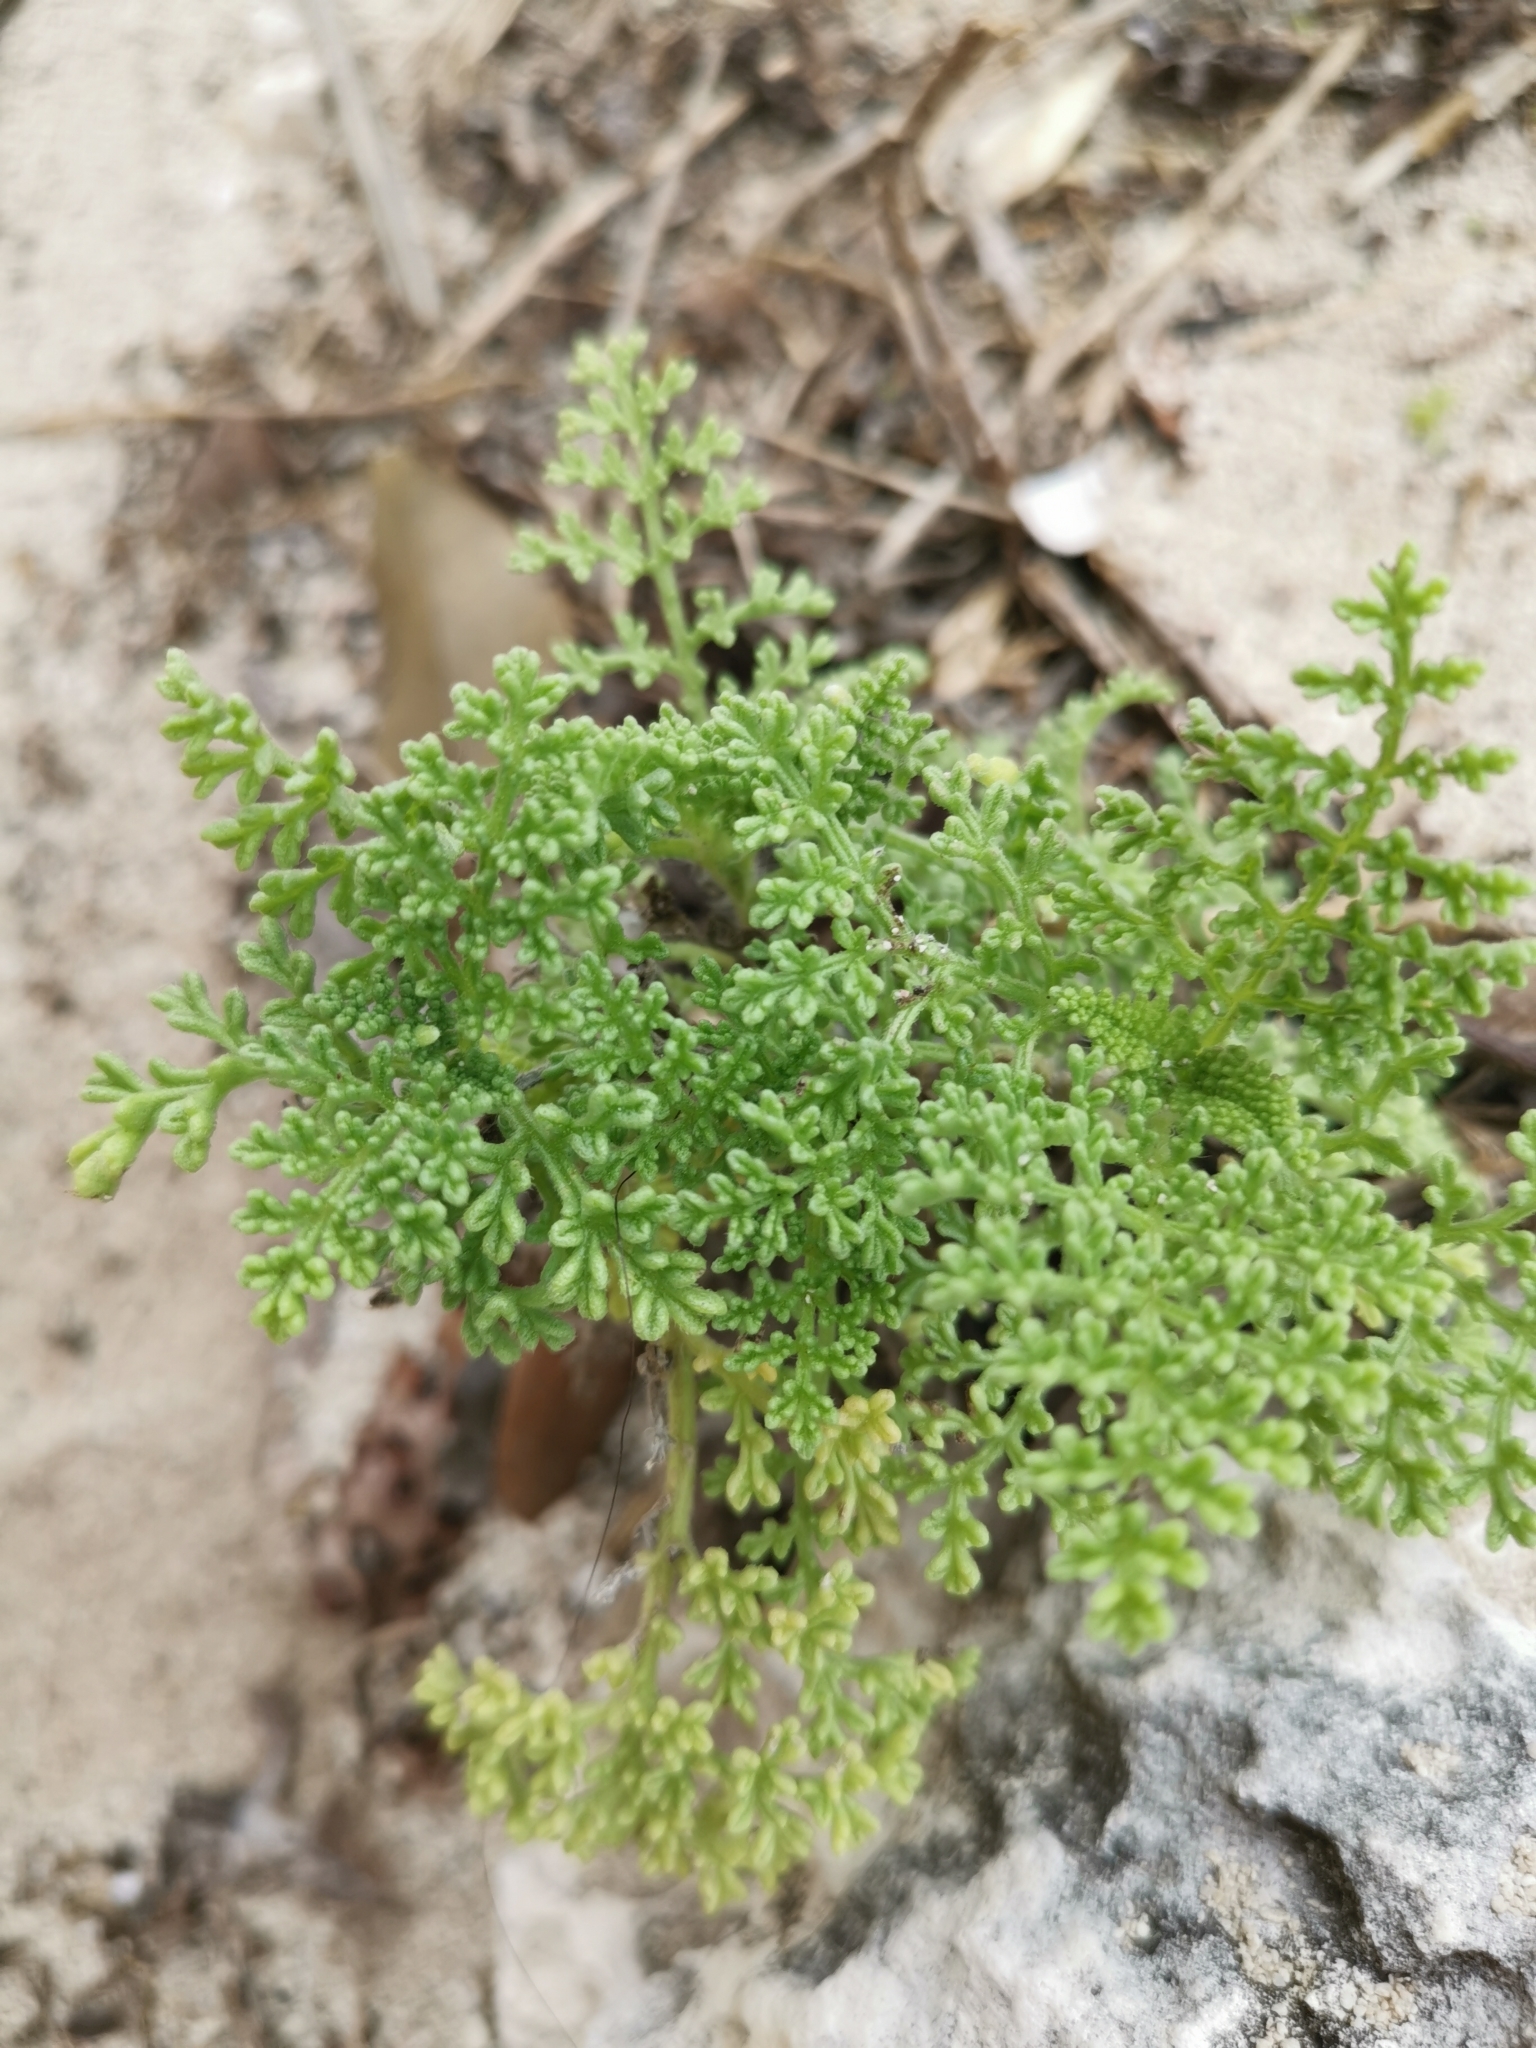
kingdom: Plantae
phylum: Tracheophyta
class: Magnoliopsida
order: Asterales
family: Asteraceae
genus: Ambrosia
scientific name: Ambrosia hispida
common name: Coastal ragweed
